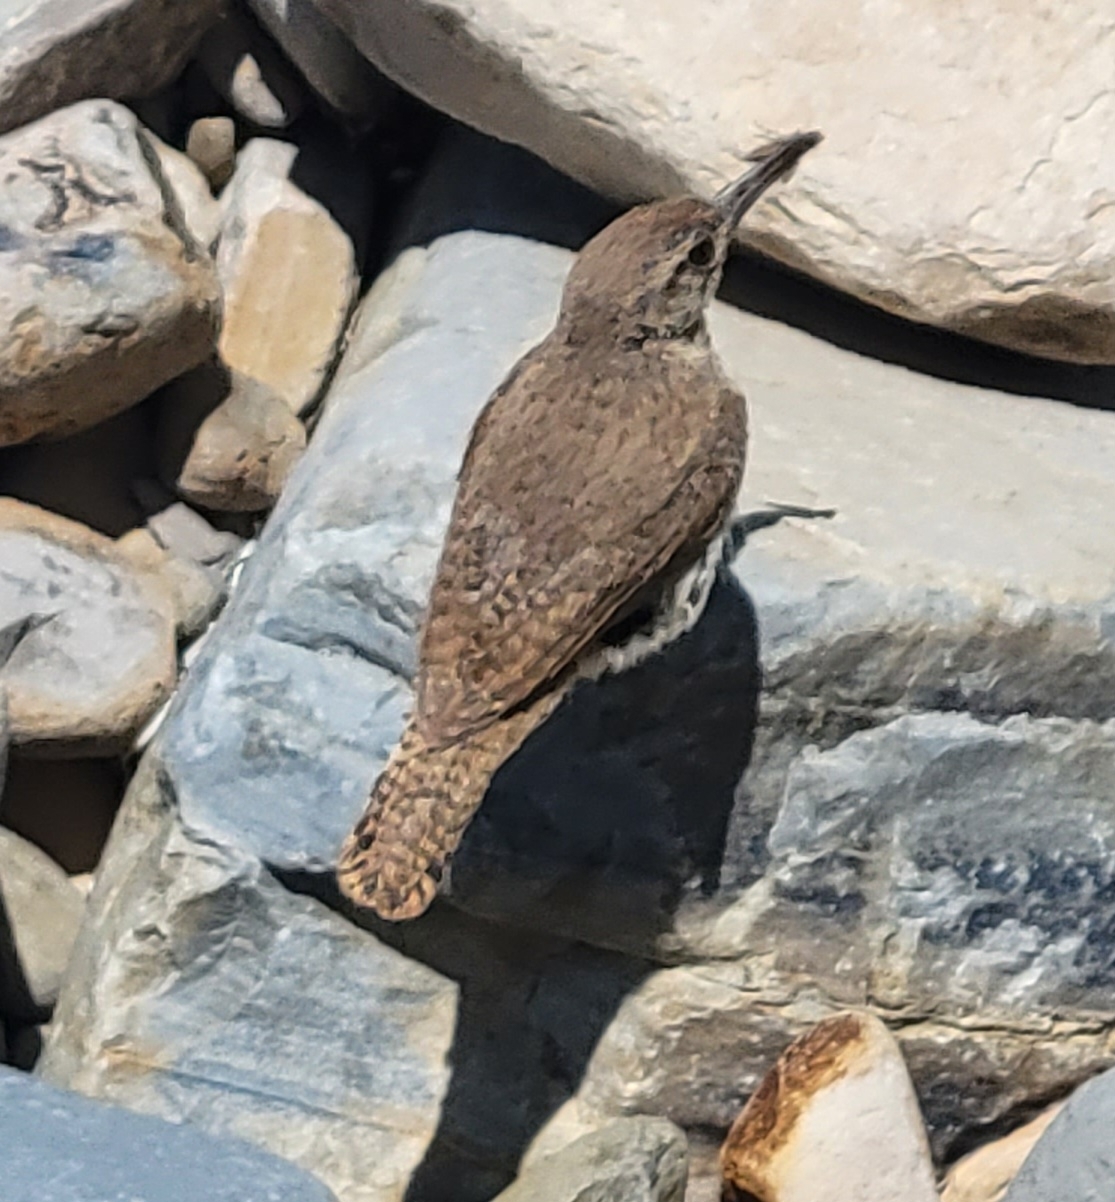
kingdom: Animalia
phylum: Chordata
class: Aves
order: Passeriformes
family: Troglodytidae
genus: Salpinctes
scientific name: Salpinctes obsoletus
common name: Rock wren
